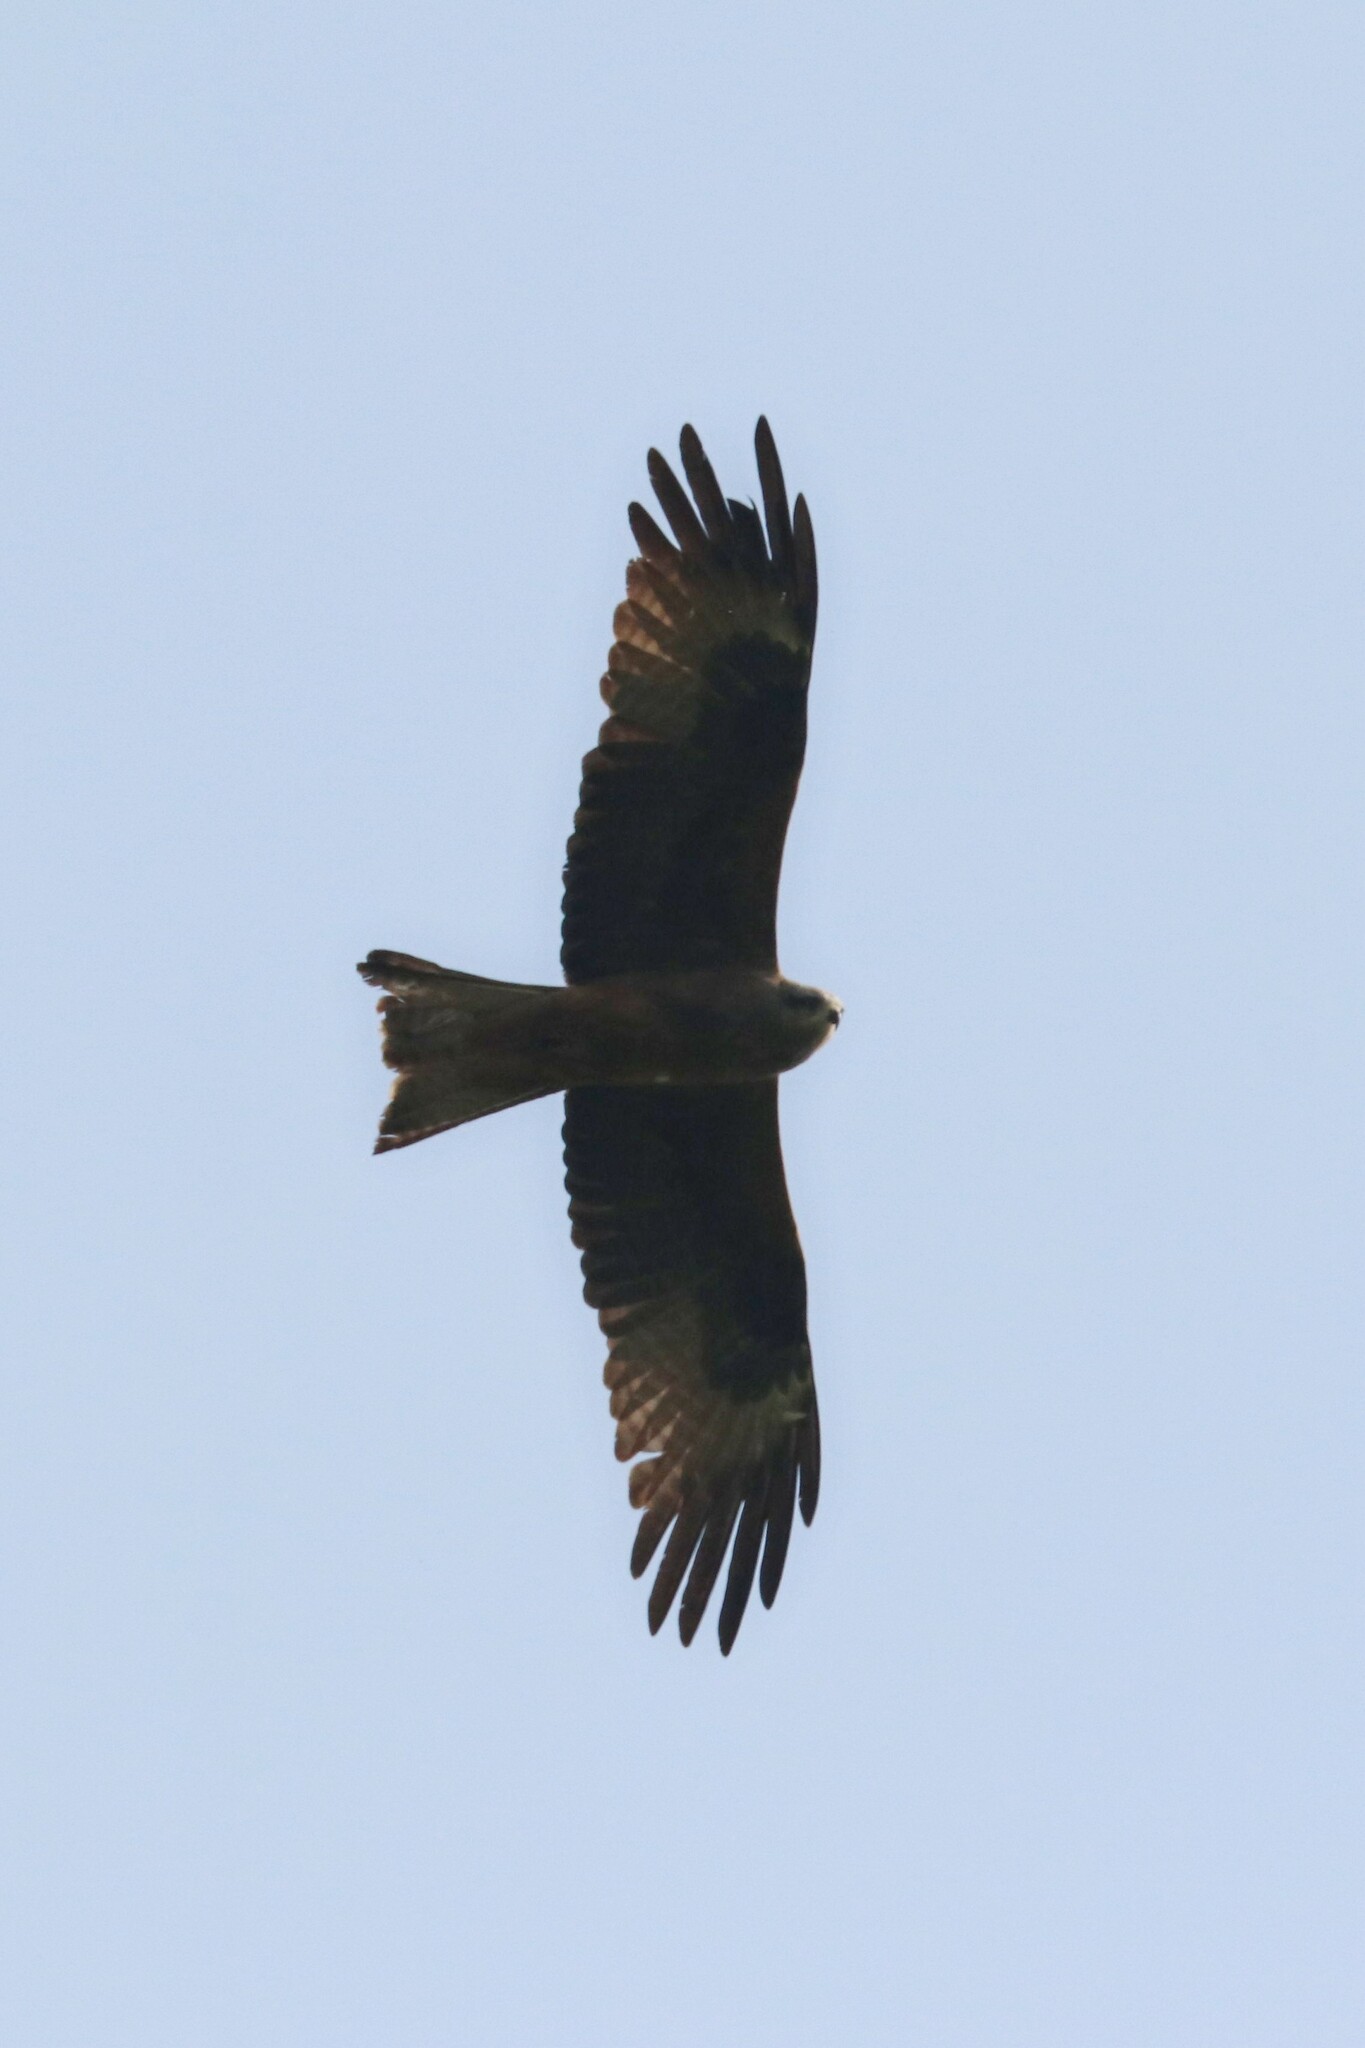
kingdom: Animalia
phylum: Chordata
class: Aves
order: Accipitriformes
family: Accipitridae
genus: Milvus
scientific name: Milvus migrans
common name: Black kite
